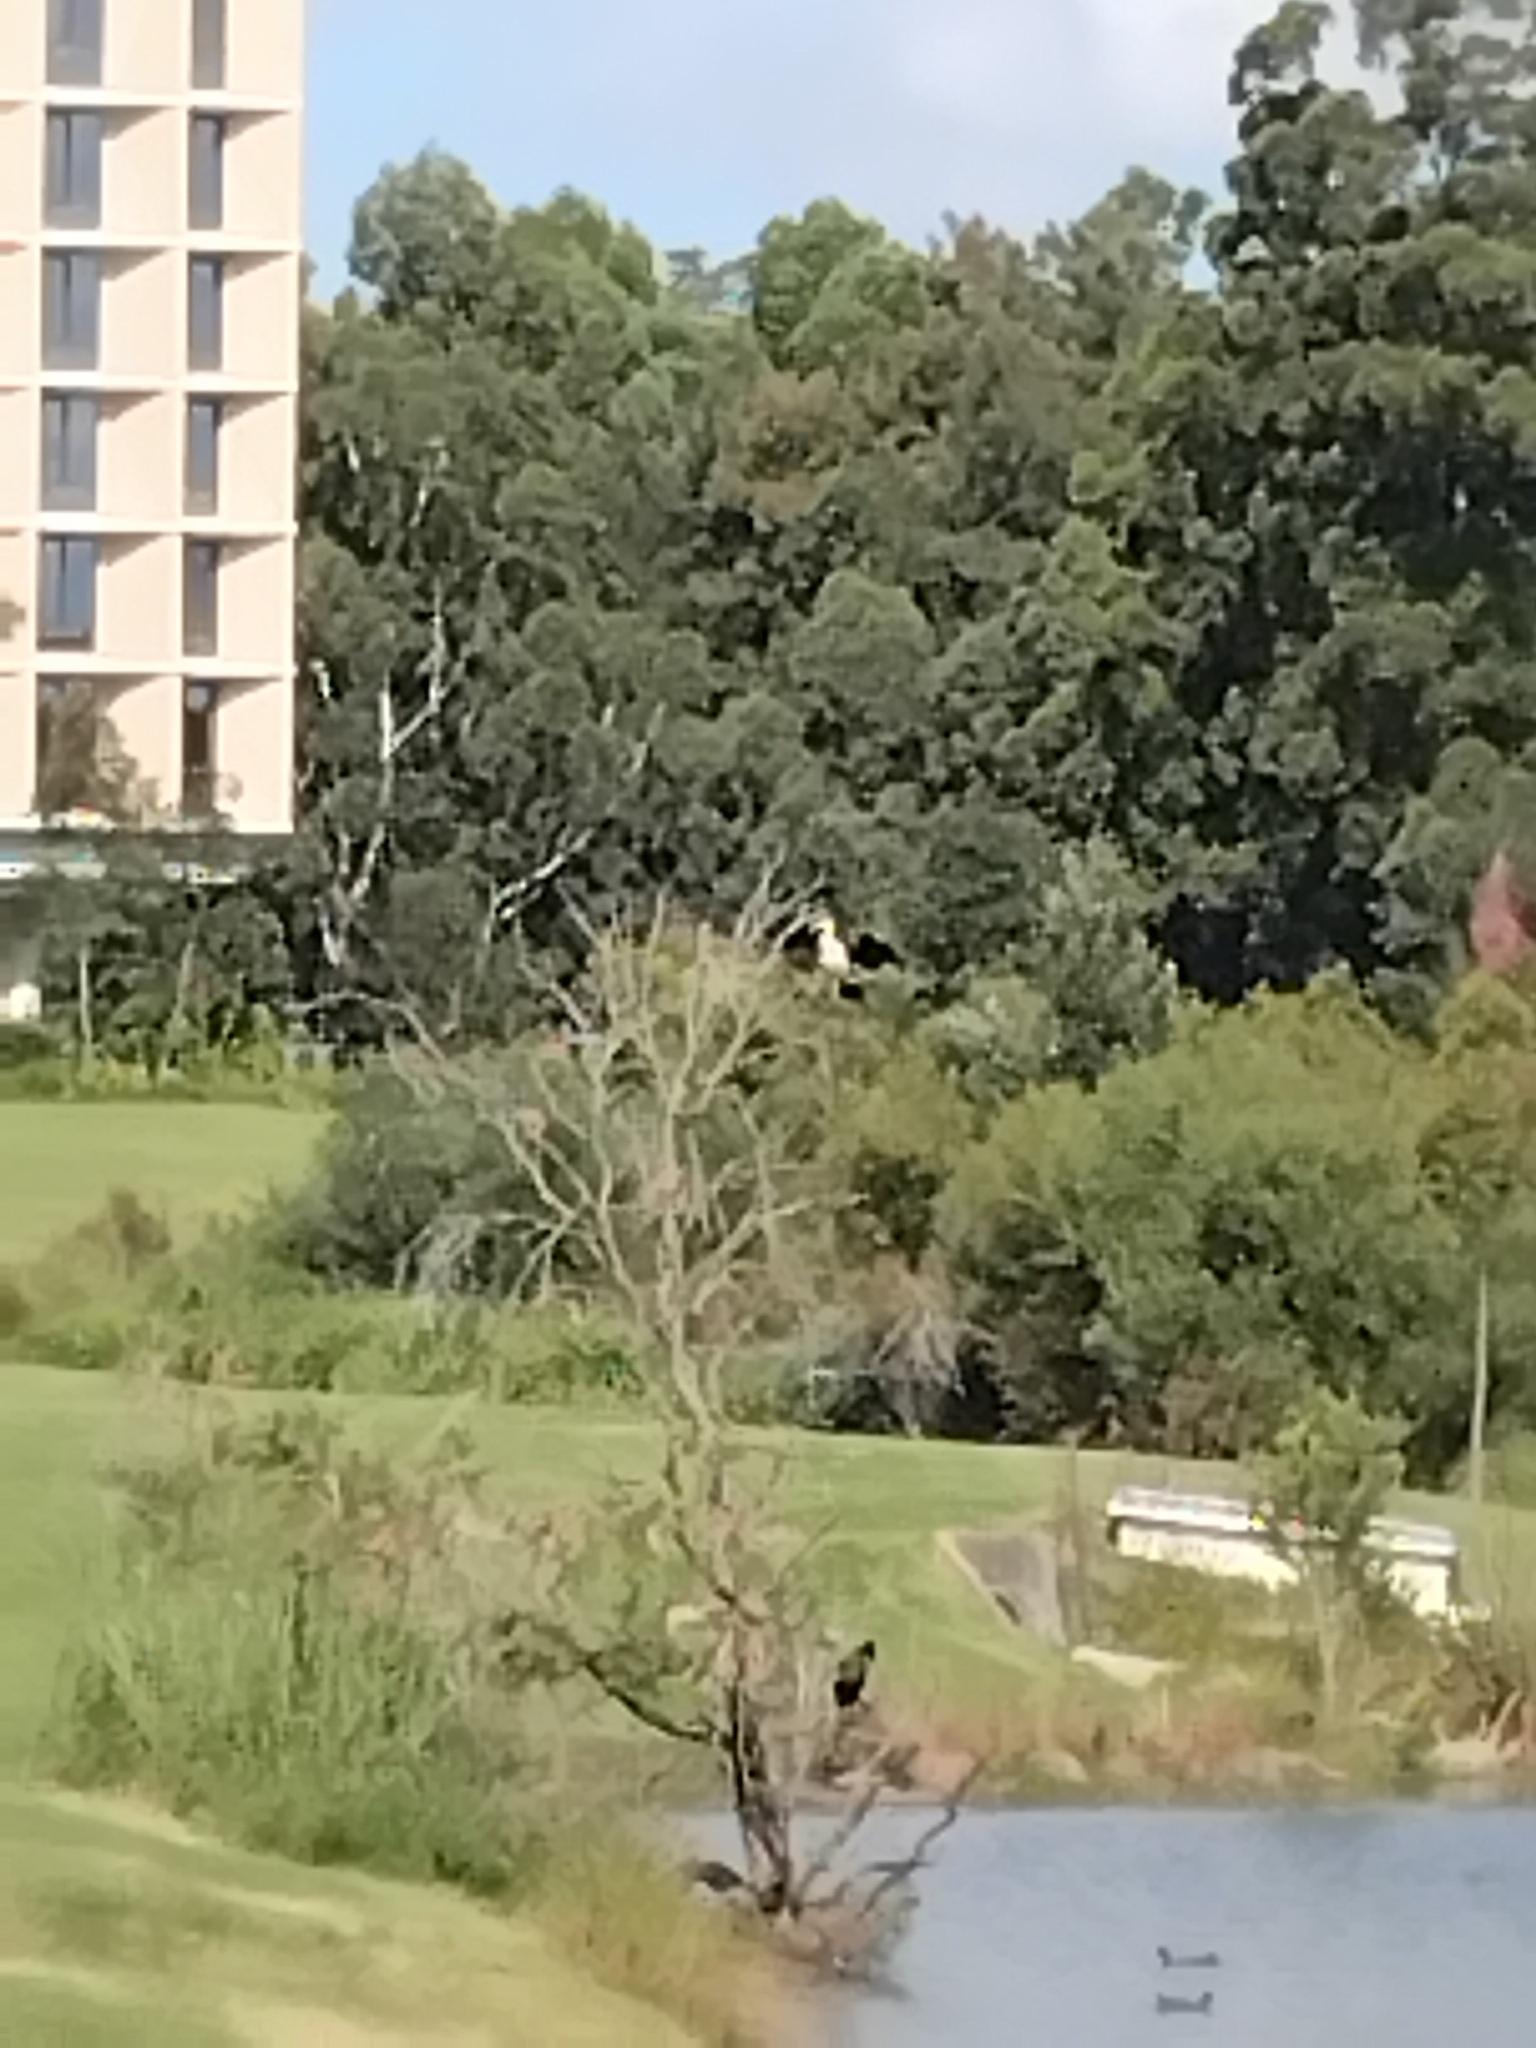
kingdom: Animalia
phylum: Chordata
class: Aves
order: Suliformes
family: Phalacrocoracidae
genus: Microcarbo
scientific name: Microcarbo melanoleucos
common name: Little pied cormorant
